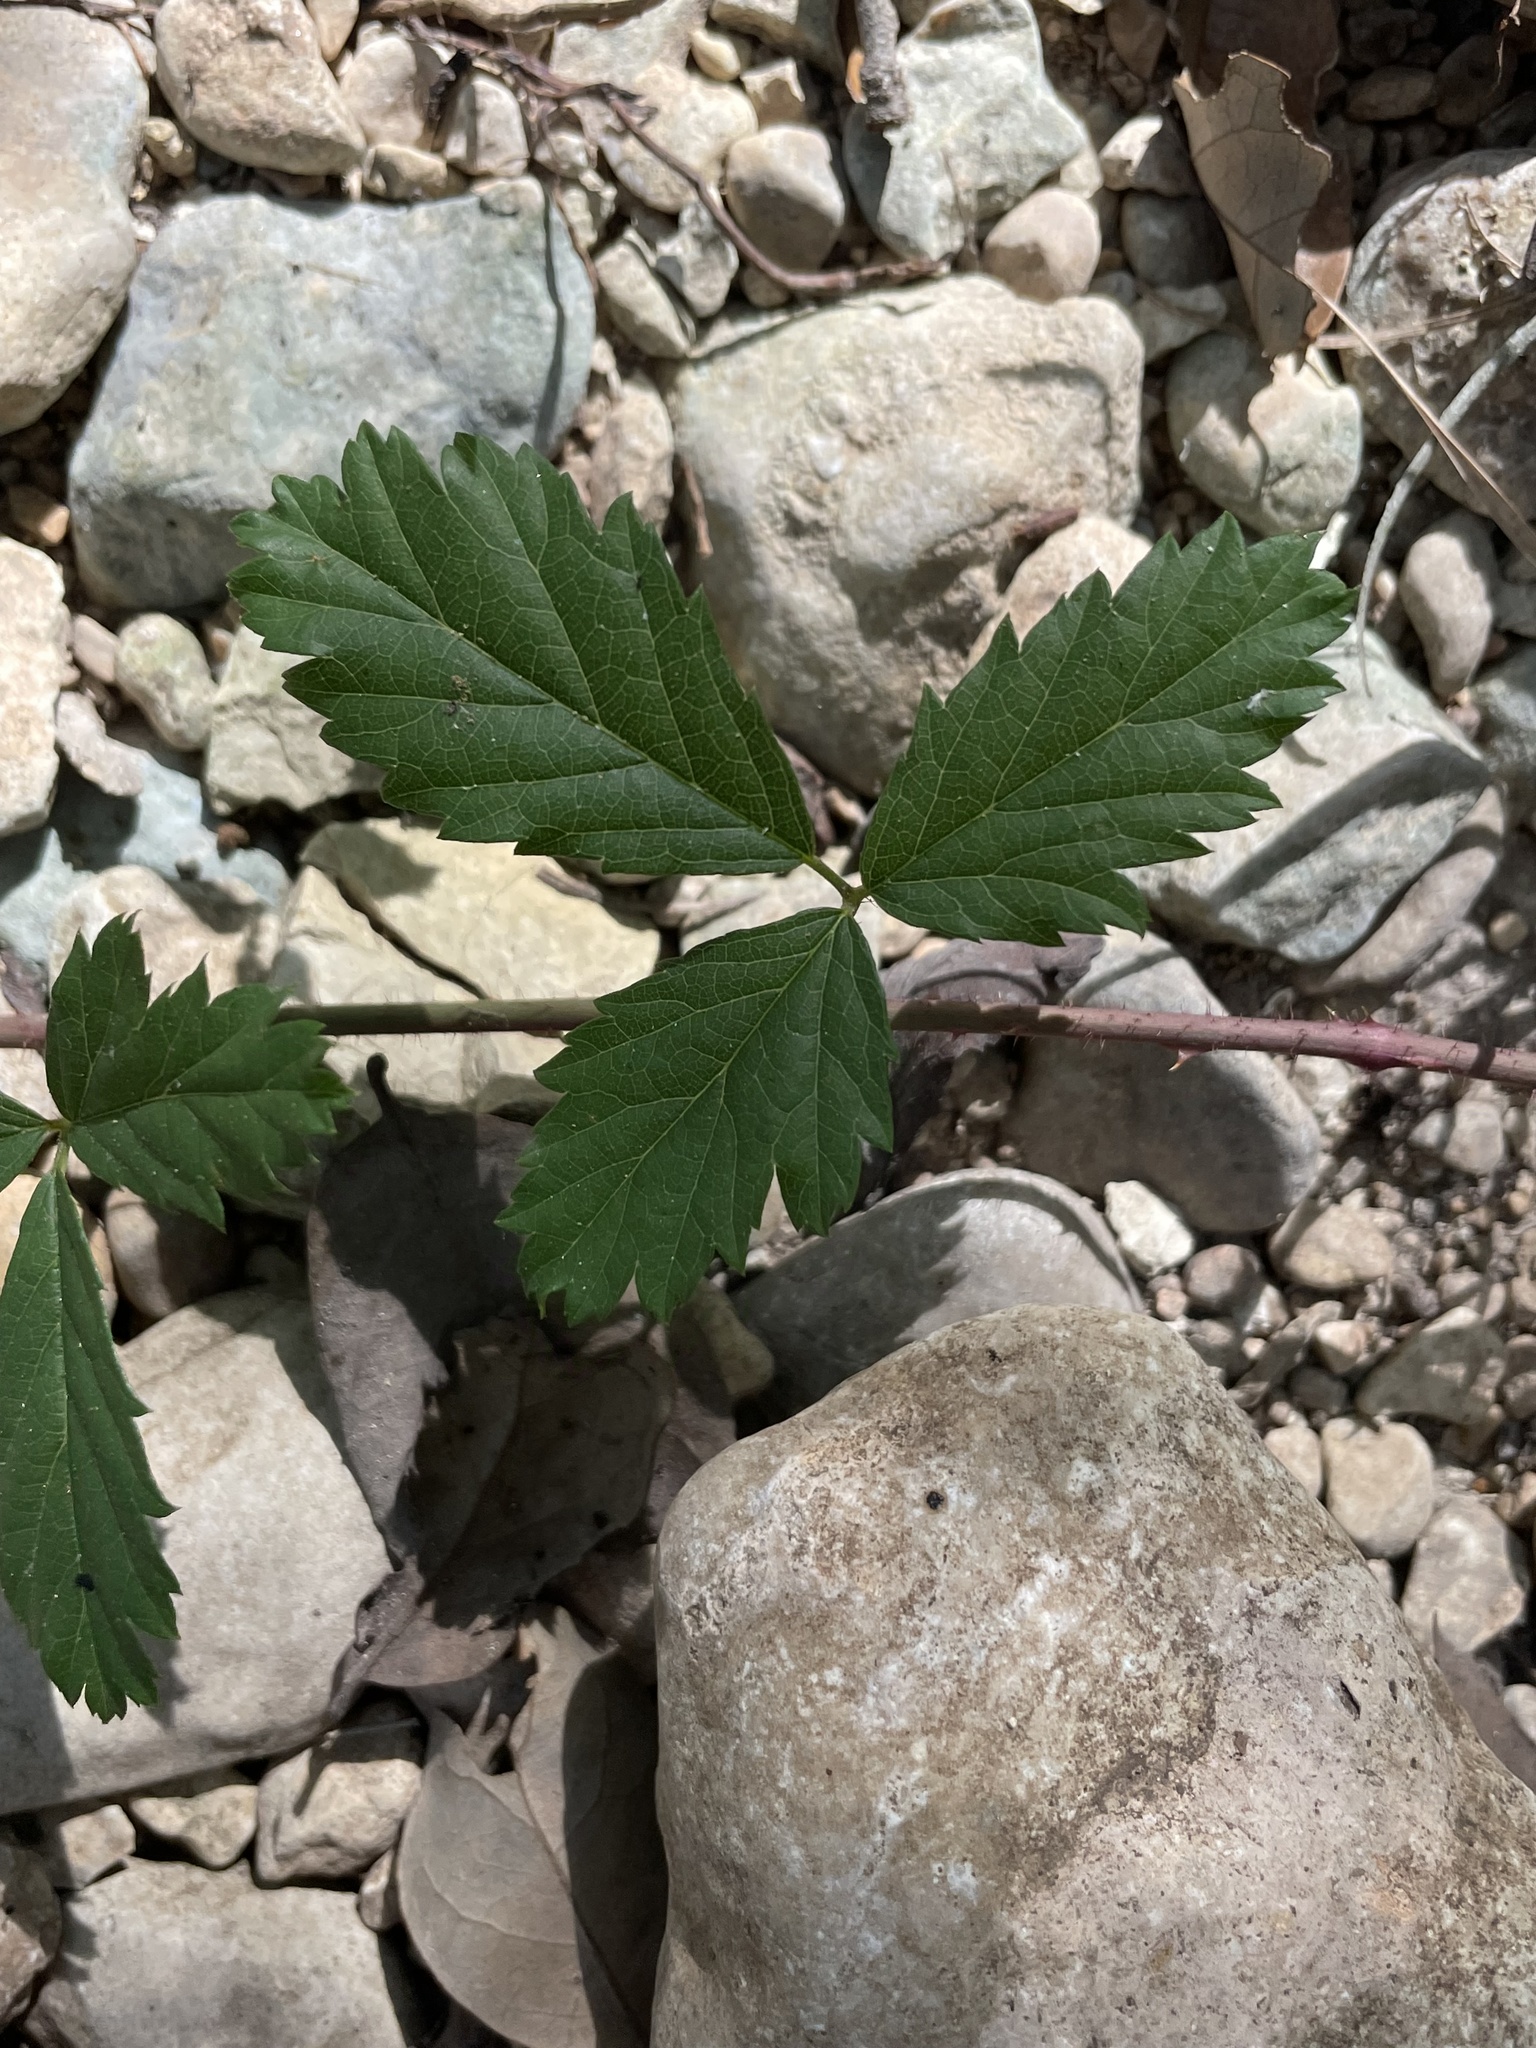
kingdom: Plantae
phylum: Tracheophyta
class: Magnoliopsida
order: Rosales
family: Rosaceae
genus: Rubus
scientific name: Rubus trivialis
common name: Southern dewberry
